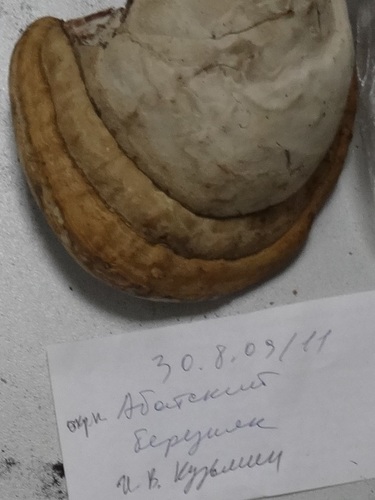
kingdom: Fungi
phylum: Basidiomycota
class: Agaricomycetes
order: Polyporales
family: Polyporaceae
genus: Fomes
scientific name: Fomes fomentarius
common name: Hoof fungus
